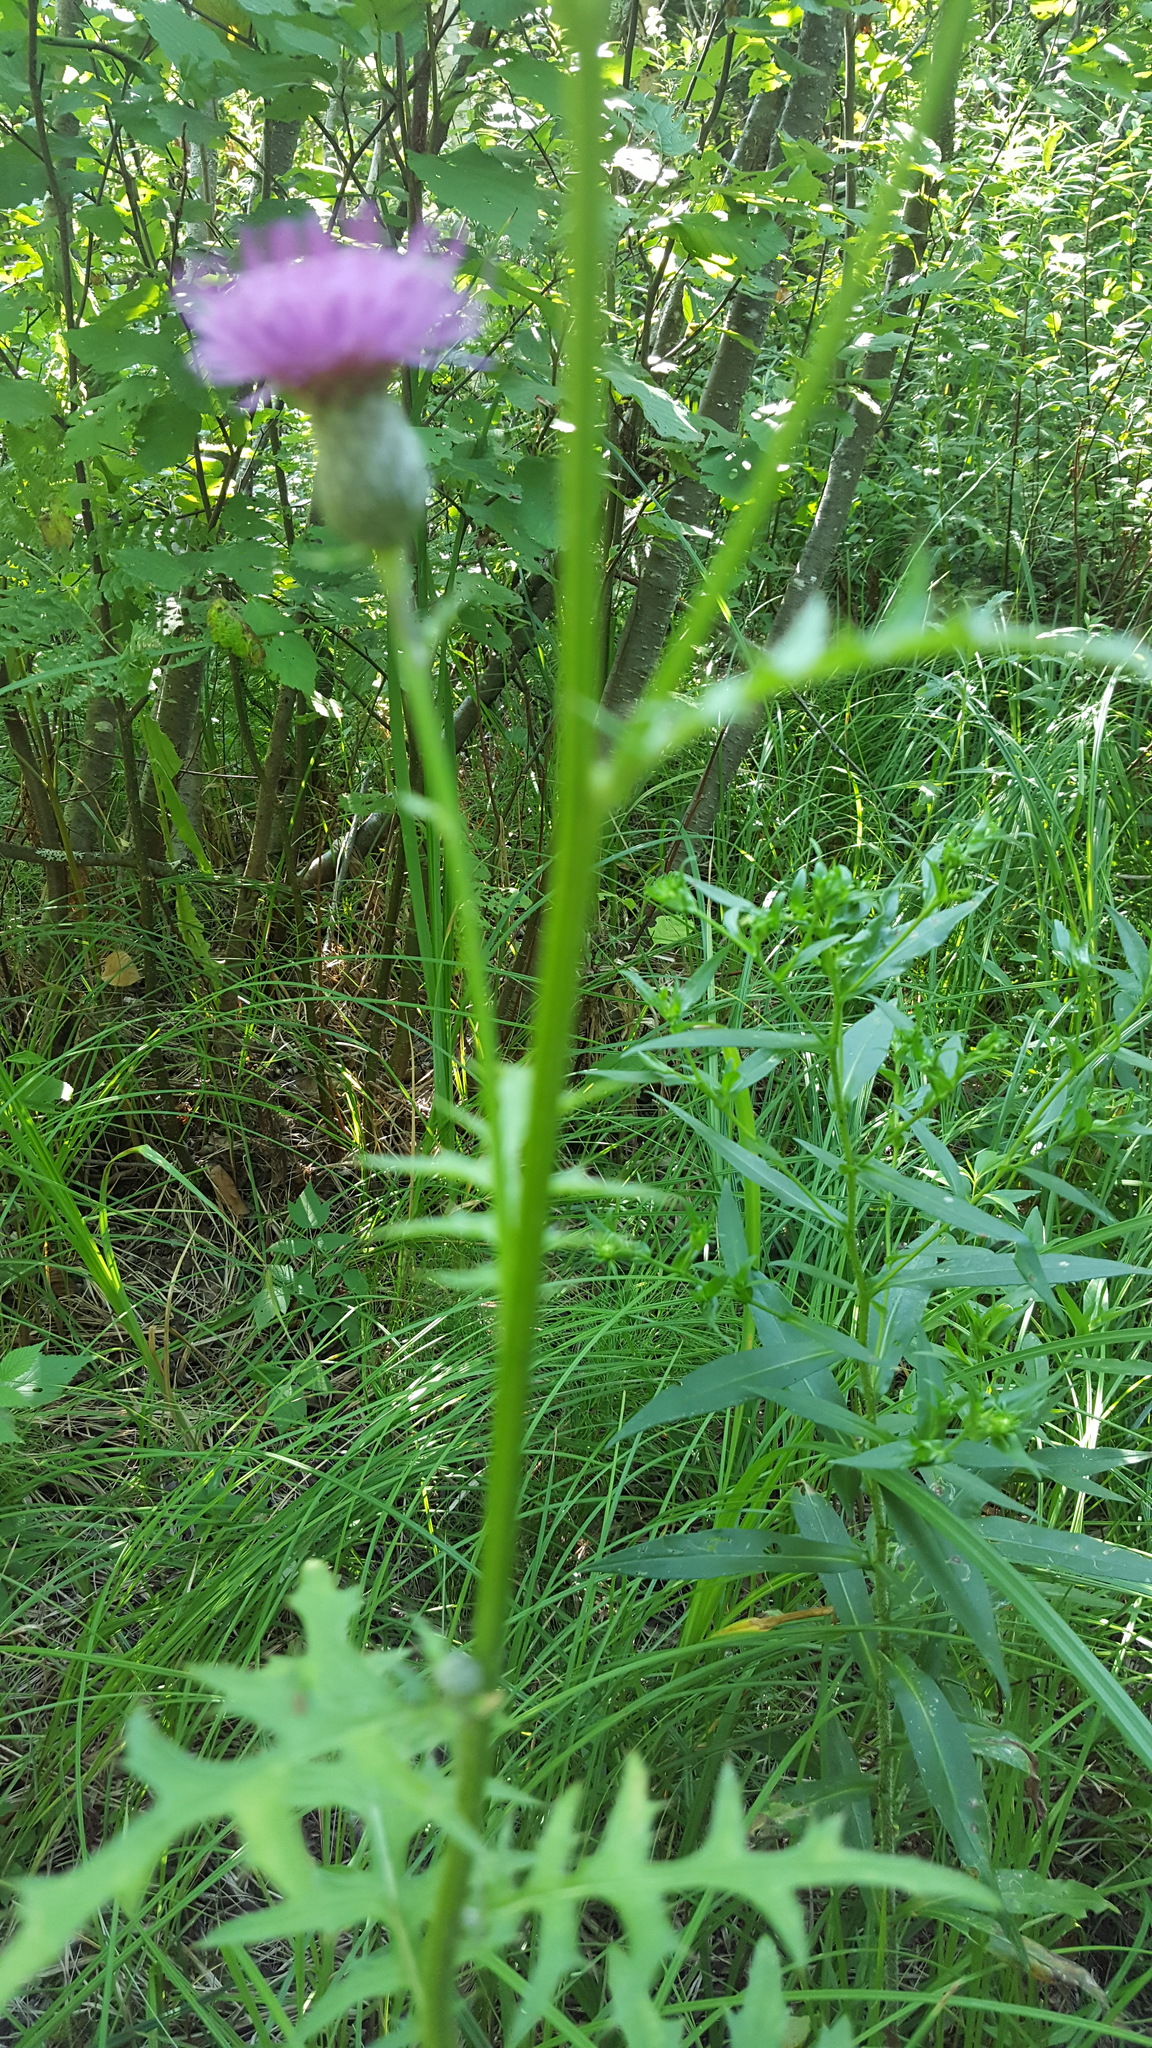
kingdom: Plantae
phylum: Tracheophyta
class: Magnoliopsida
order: Asterales
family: Asteraceae
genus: Cirsium
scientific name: Cirsium muticum
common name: Dunce-nettle
